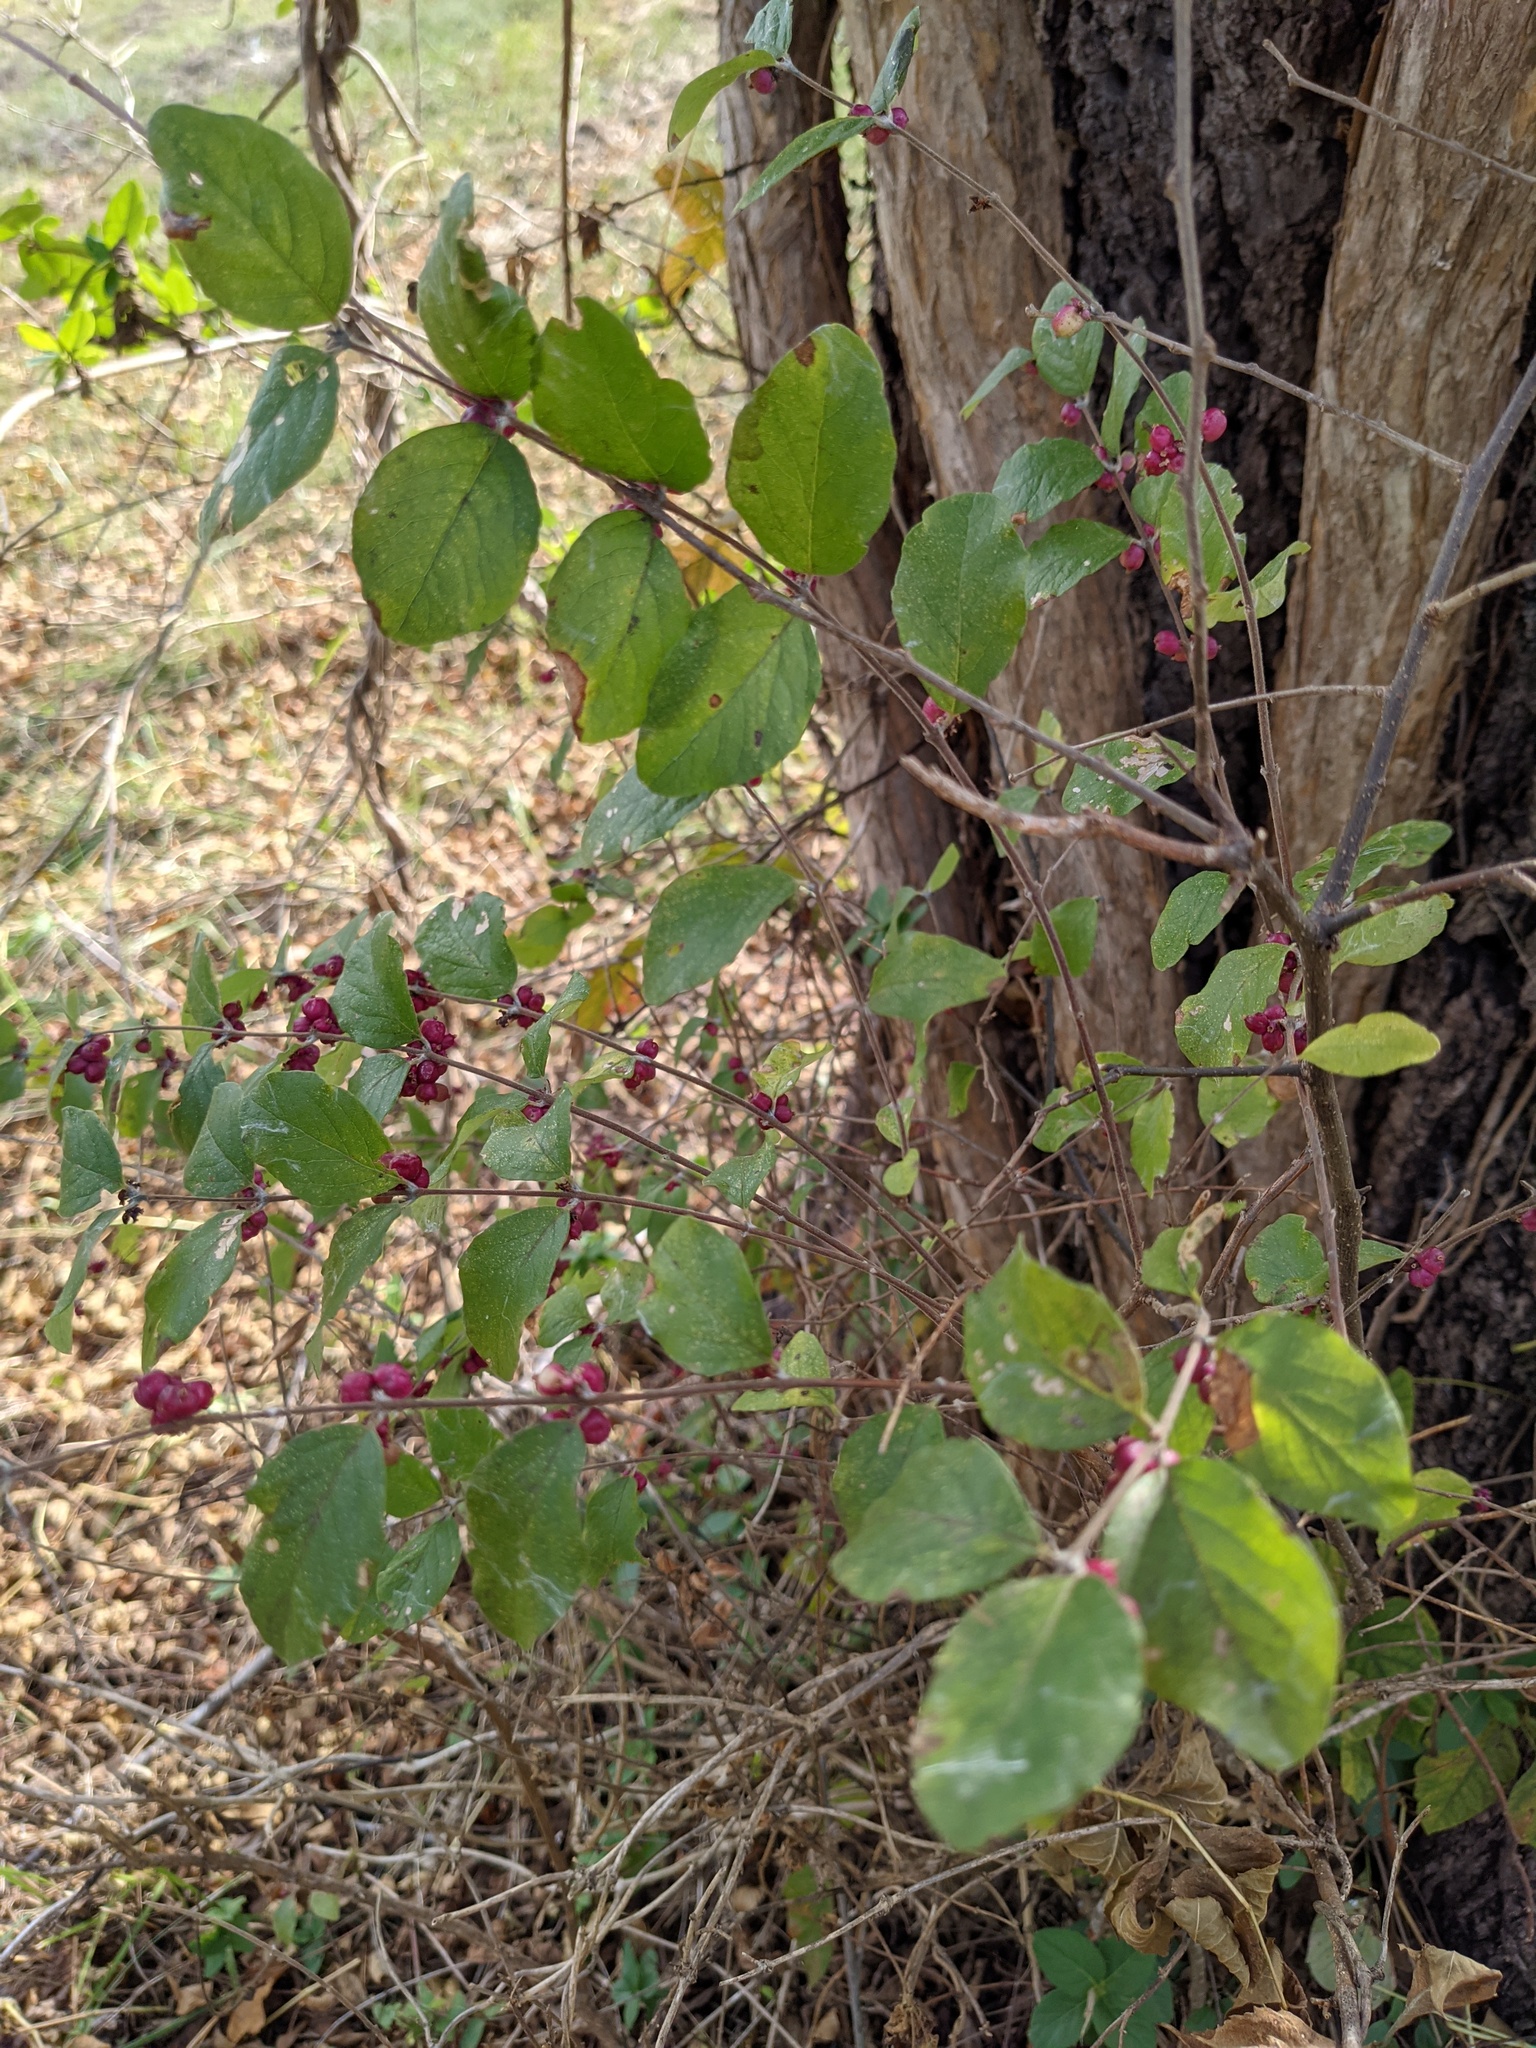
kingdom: Plantae
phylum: Tracheophyta
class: Magnoliopsida
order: Dipsacales
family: Caprifoliaceae
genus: Symphoricarpos
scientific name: Symphoricarpos orbiculatus
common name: Coralberry
